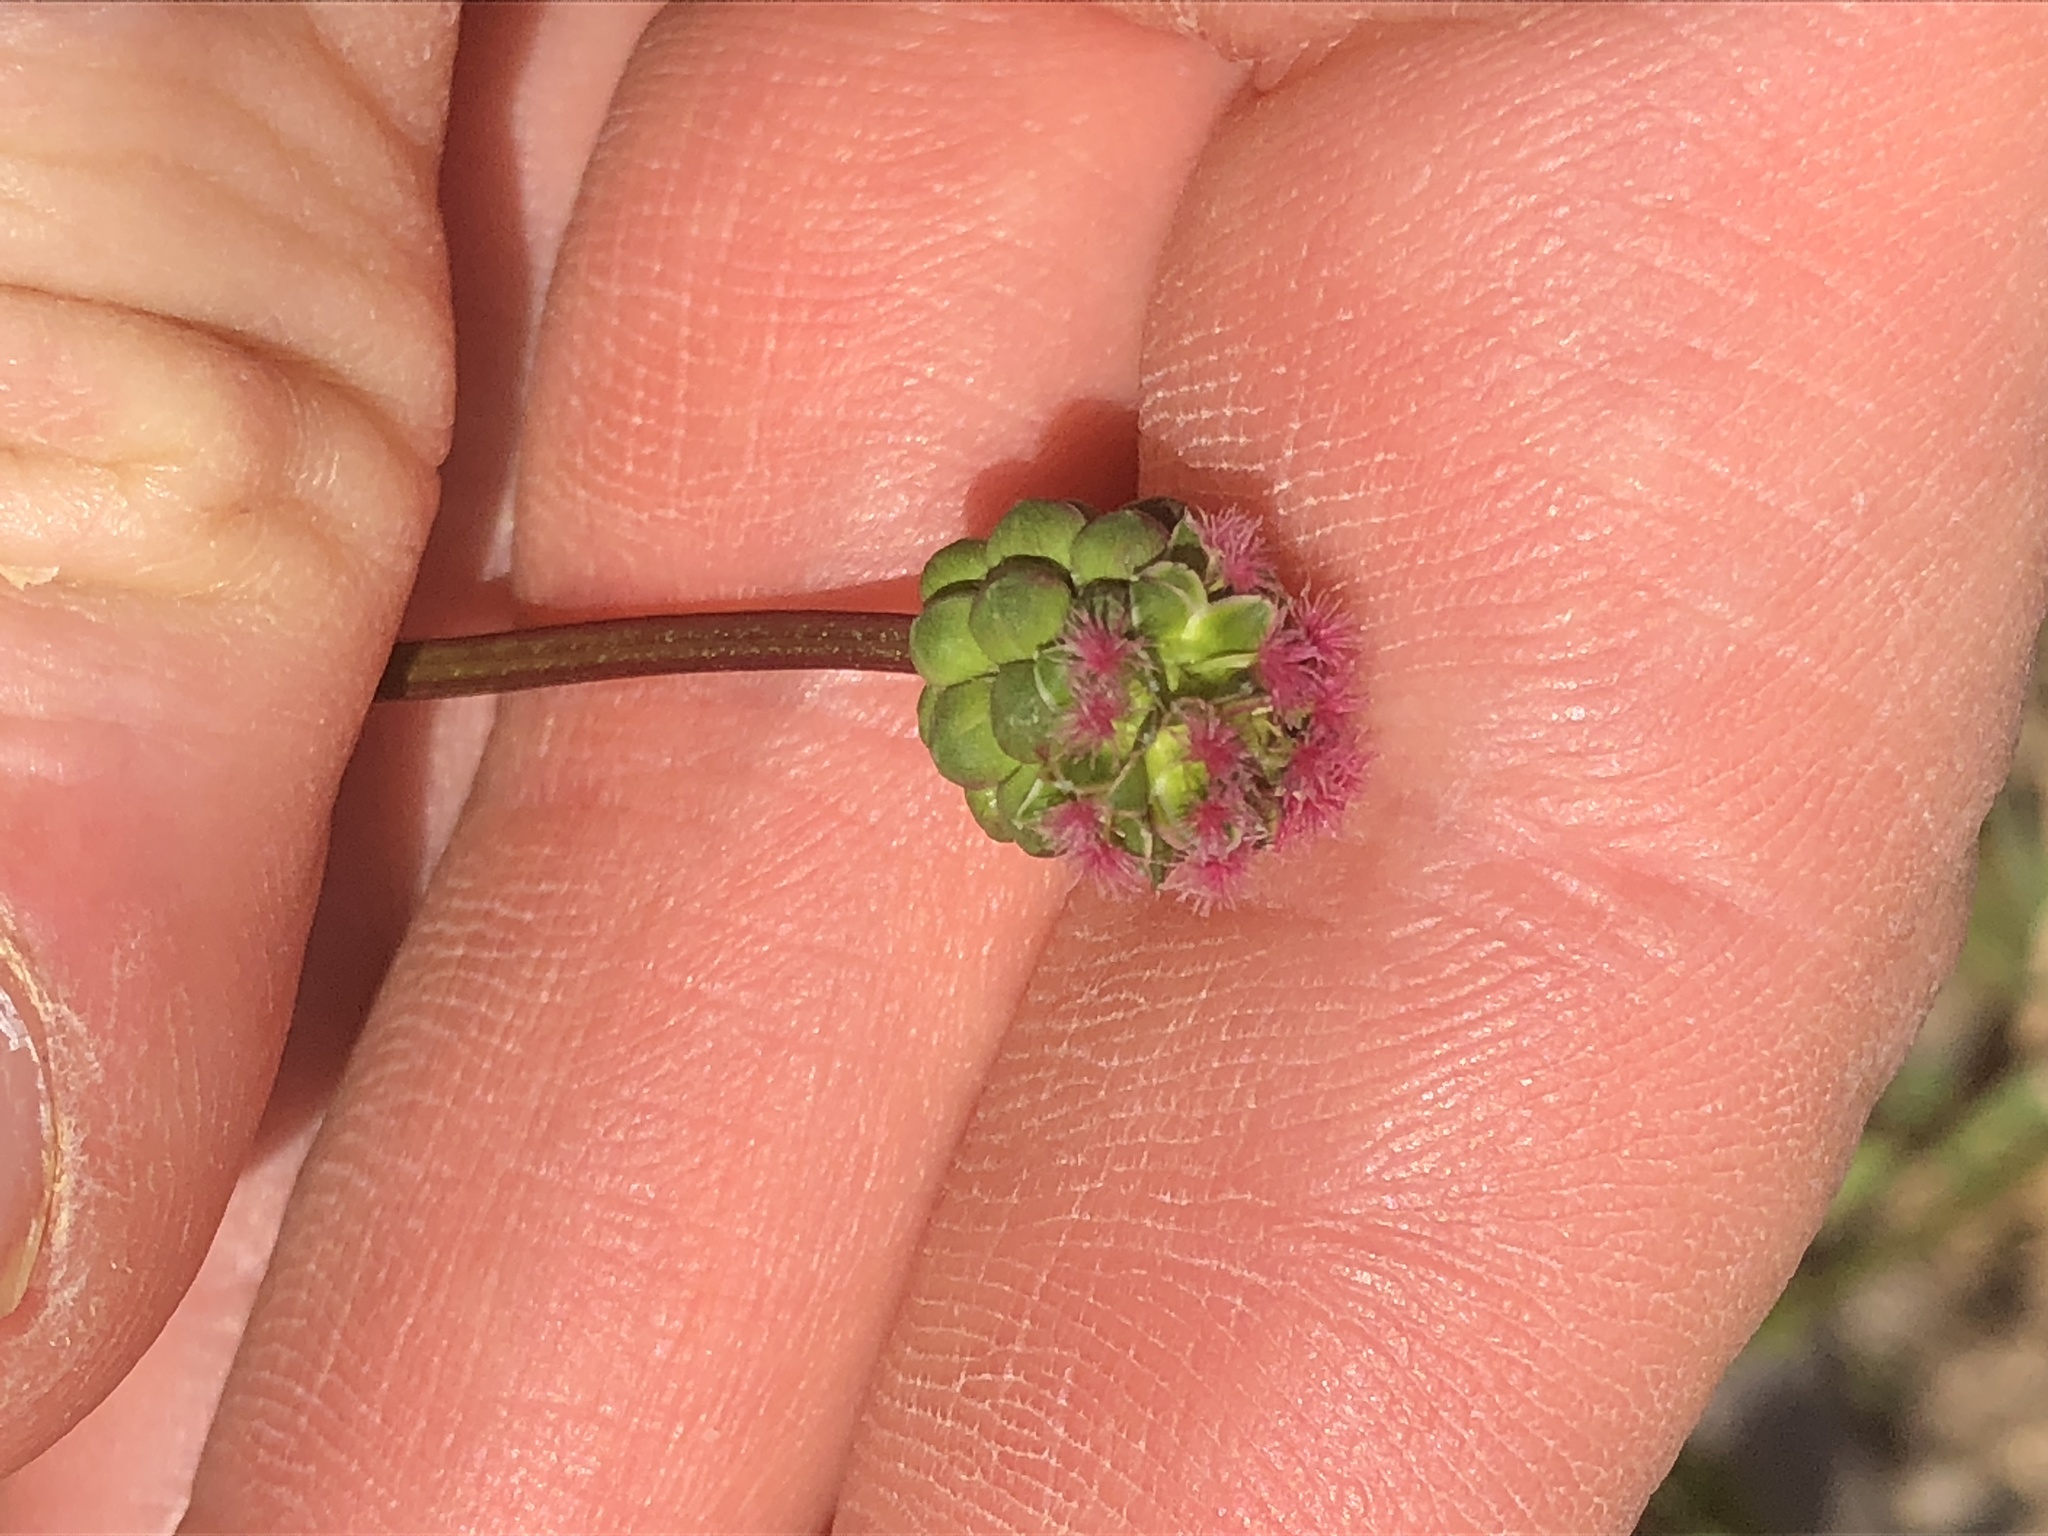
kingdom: Plantae
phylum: Tracheophyta
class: Magnoliopsida
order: Rosales
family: Rosaceae
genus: Poterium
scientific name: Poterium sanguisorba
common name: Salad burnet
